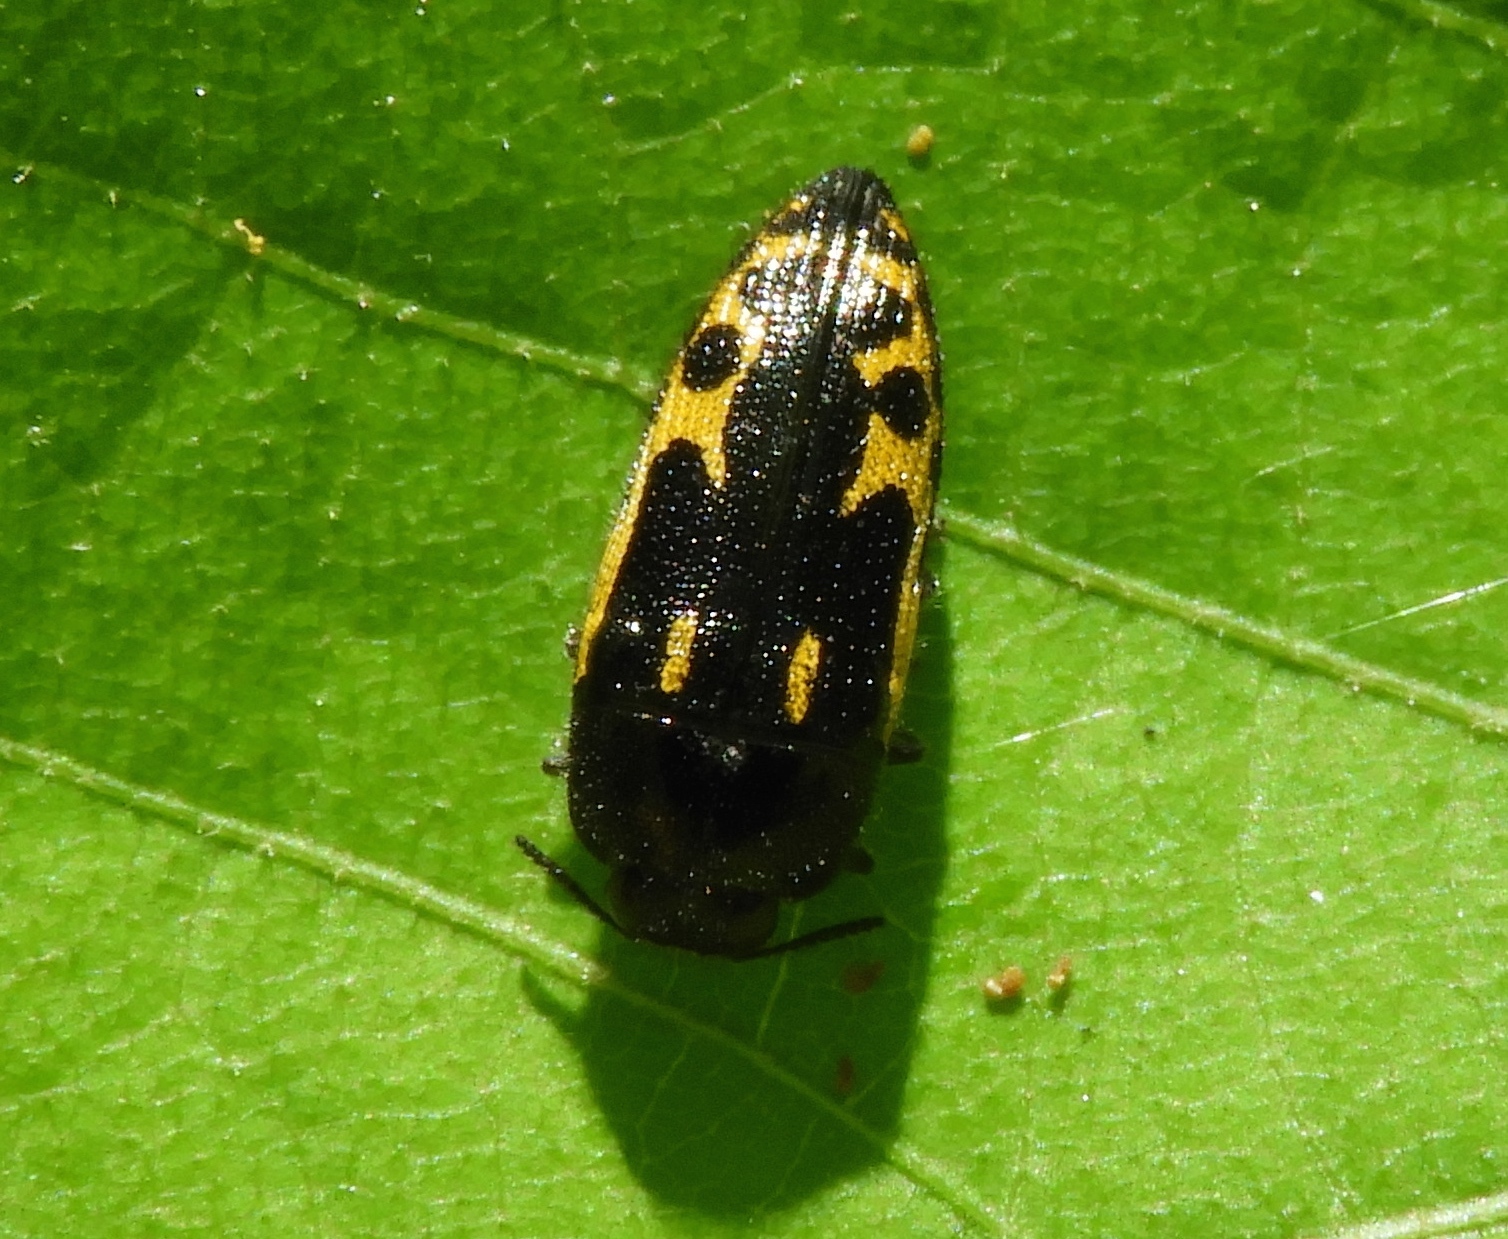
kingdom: Animalia
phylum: Arthropoda
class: Insecta
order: Coleoptera
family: Buprestidae
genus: Acmaeodera
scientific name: Acmaeodera scalaris
